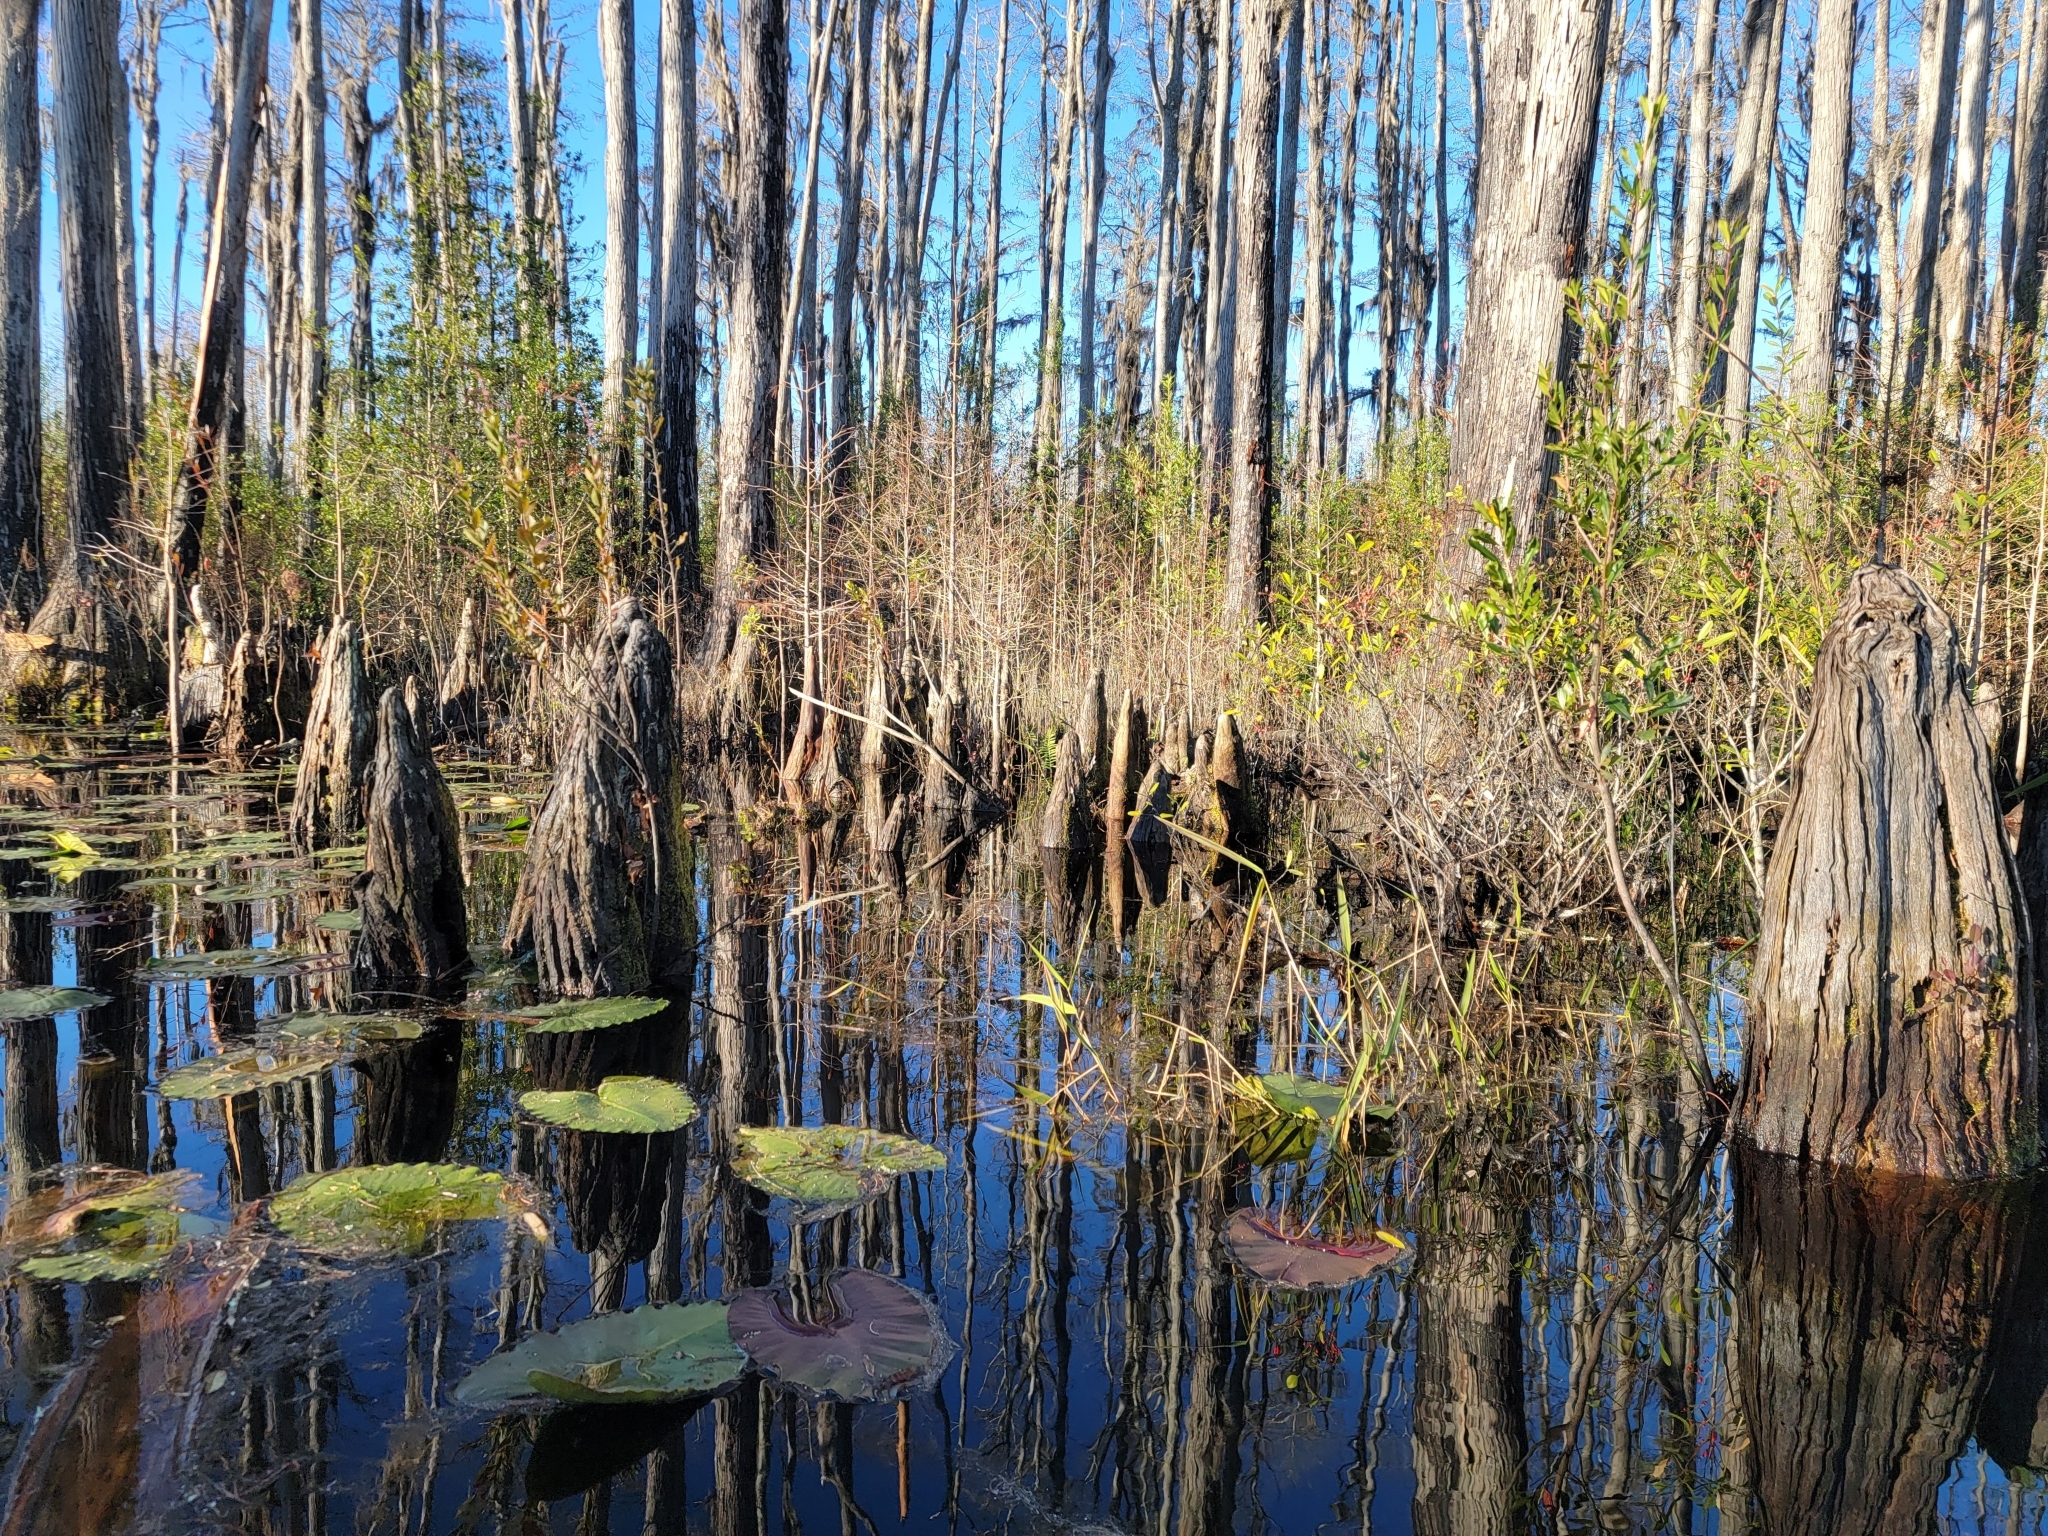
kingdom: Plantae
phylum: Tracheophyta
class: Pinopsida
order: Pinales
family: Cupressaceae
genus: Taxodium
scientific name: Taxodium distichum
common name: Bald cypress
